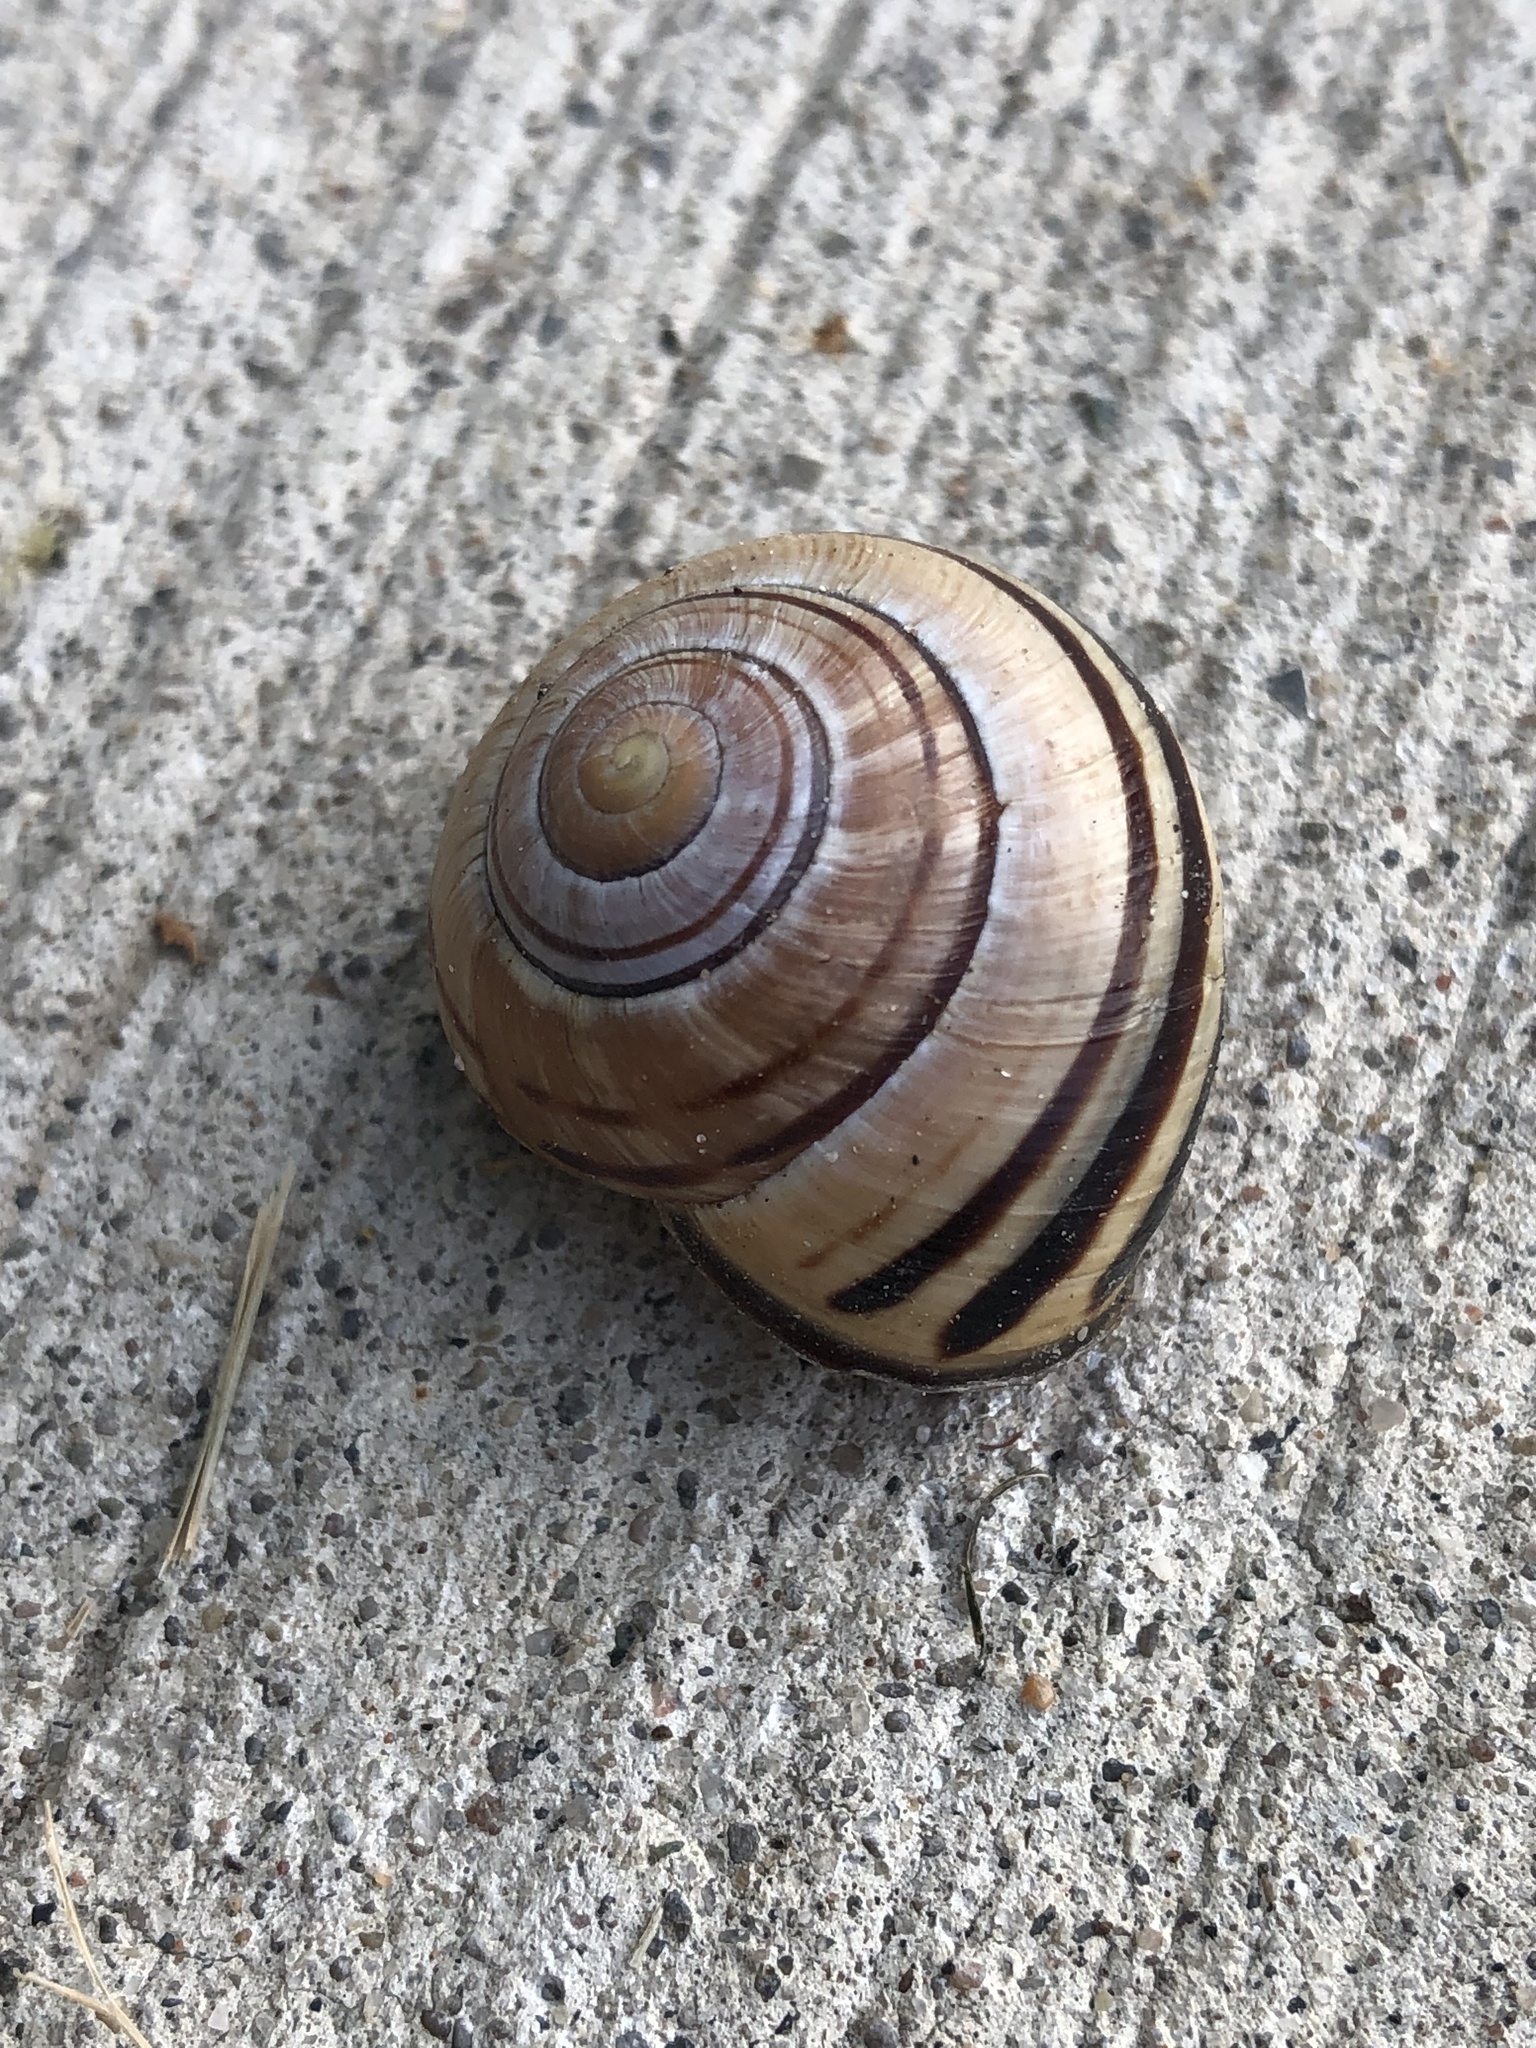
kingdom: Animalia
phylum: Mollusca
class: Gastropoda
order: Stylommatophora
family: Helicidae
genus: Cepaea
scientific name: Cepaea nemoralis
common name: Grovesnail
